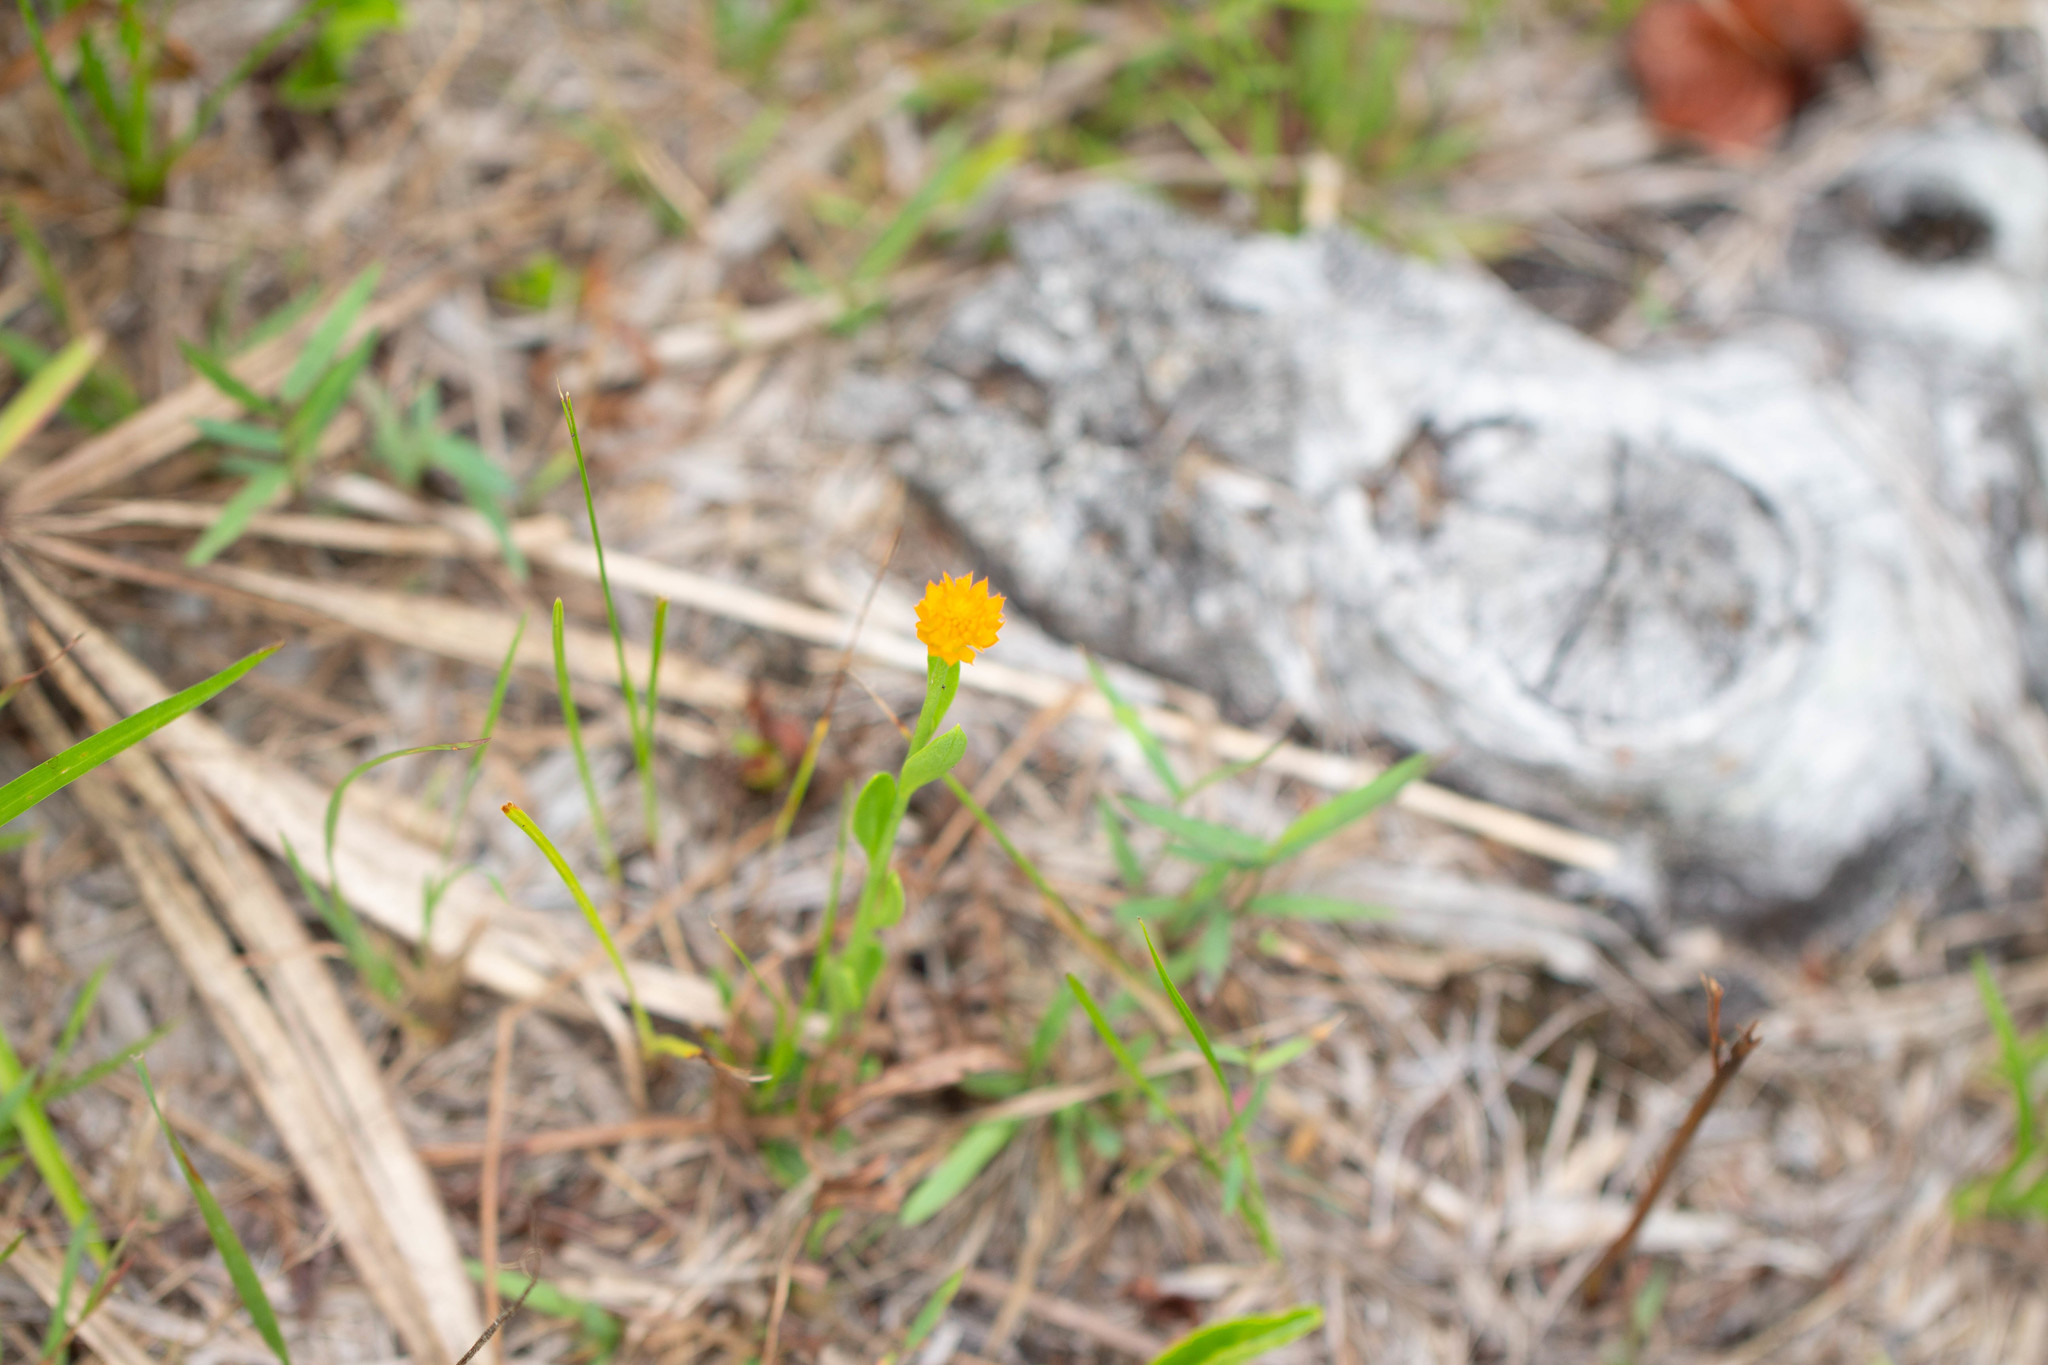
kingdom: Plantae
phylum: Tracheophyta
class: Magnoliopsida
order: Fabales
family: Polygalaceae
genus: Polygala
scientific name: Polygala lutea
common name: Orange milkwort
